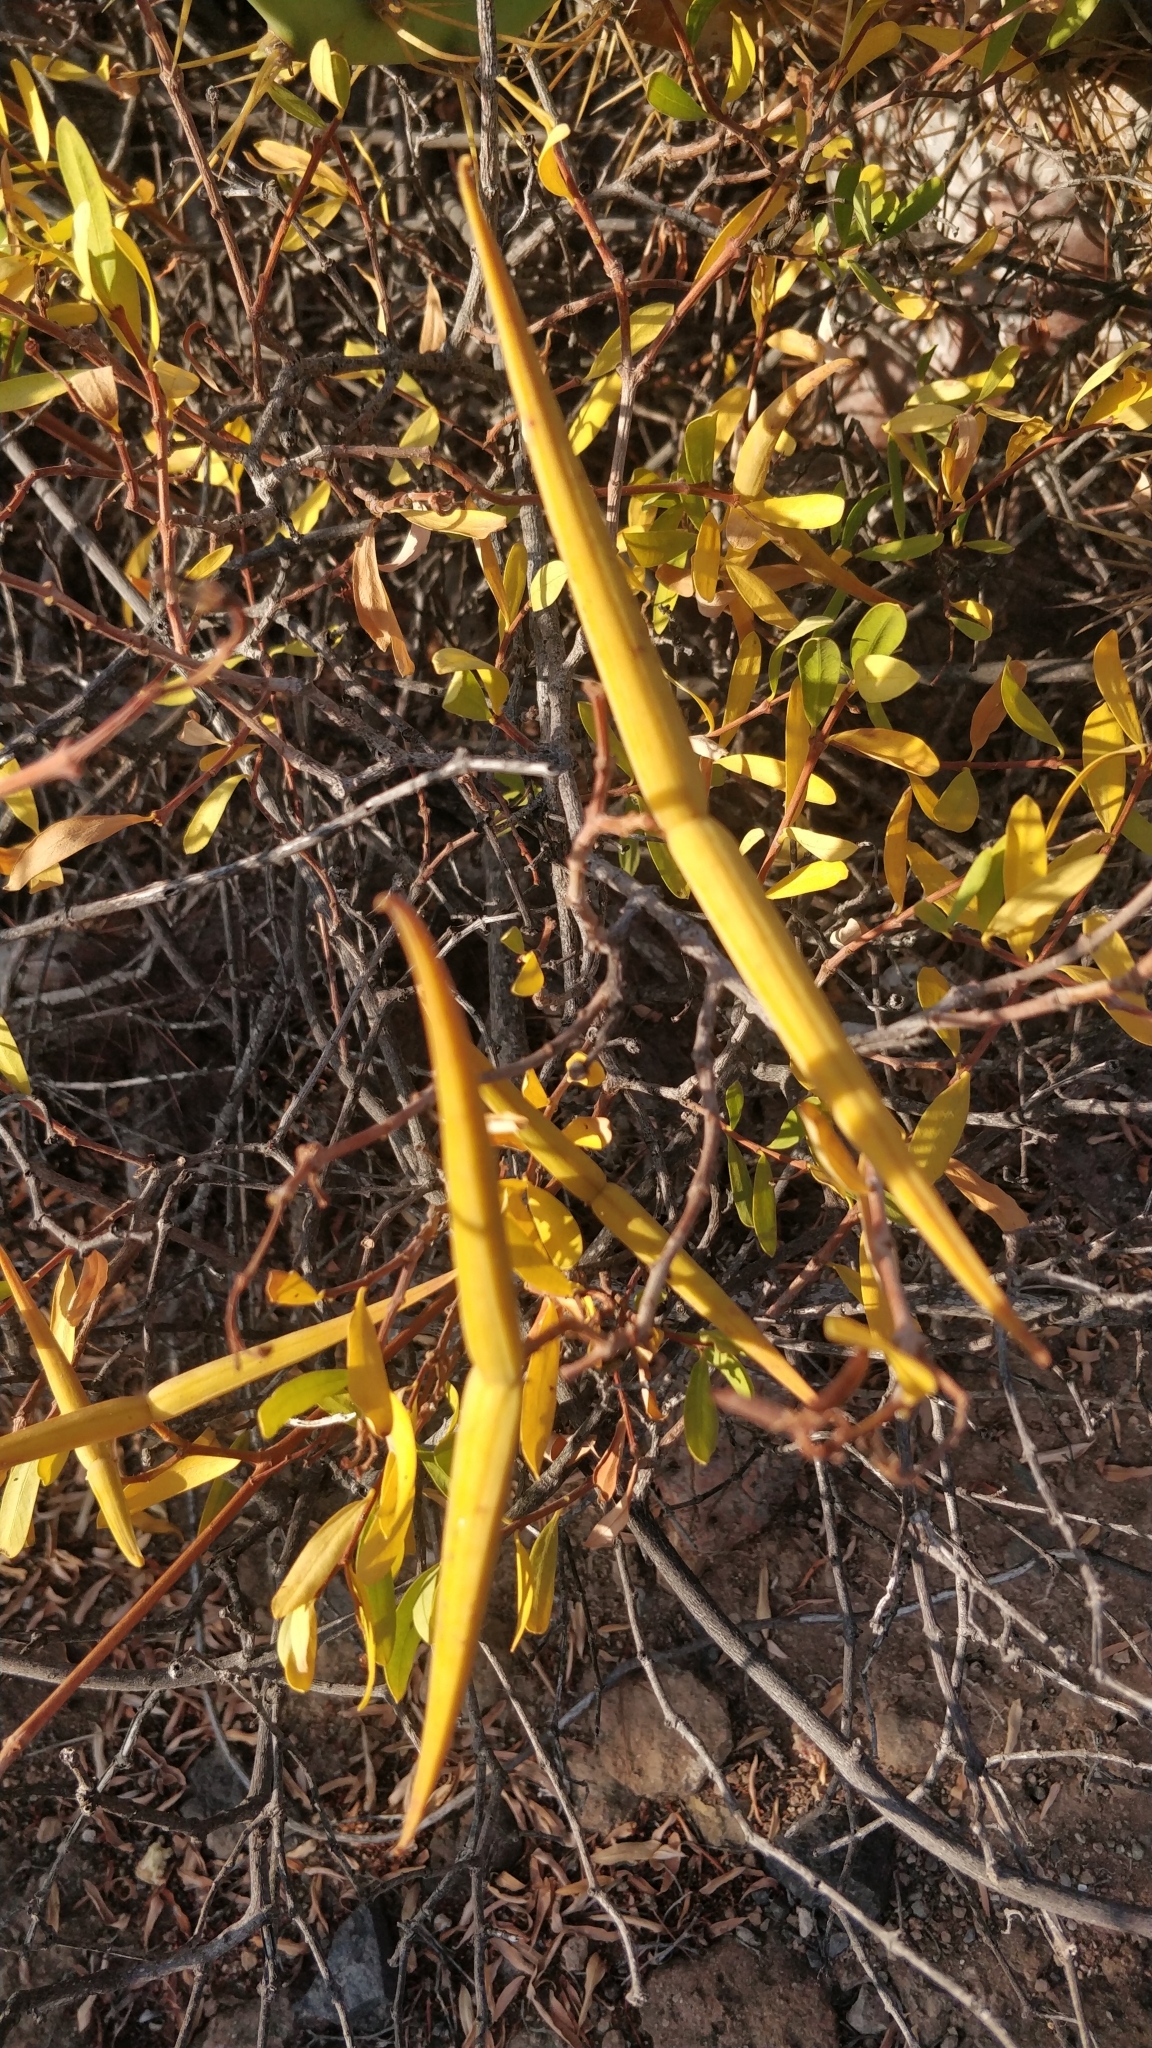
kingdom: Plantae
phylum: Tracheophyta
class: Magnoliopsida
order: Gentianales
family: Apocynaceae
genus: Periploca
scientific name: Periploca laevigata
